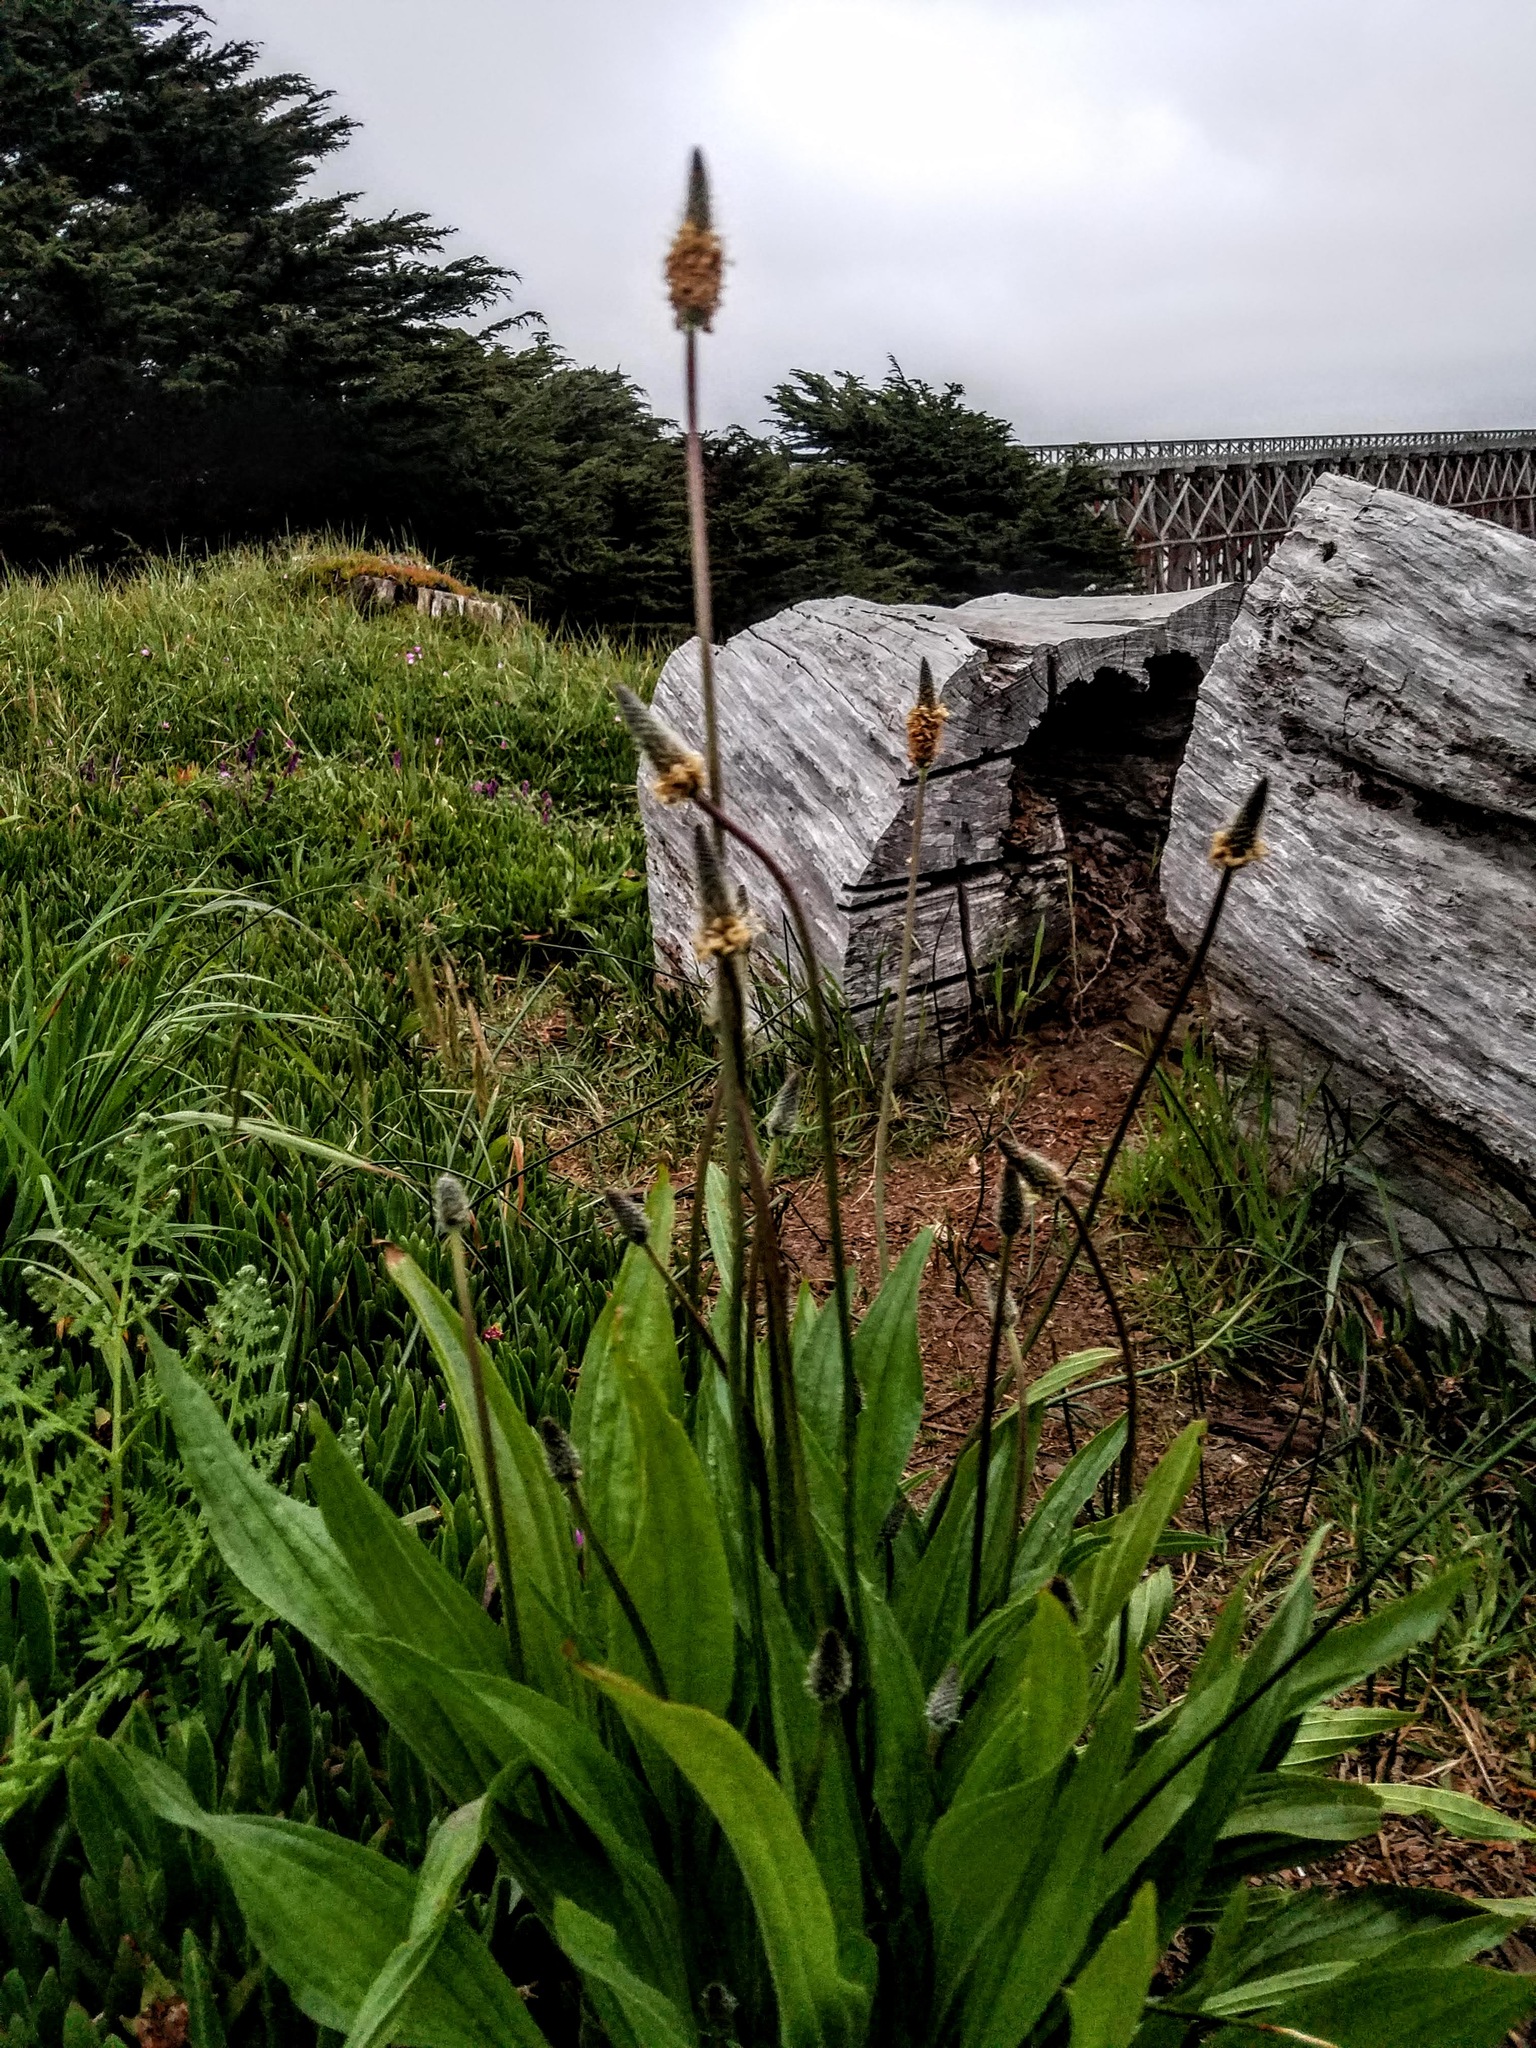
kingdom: Plantae
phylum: Tracheophyta
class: Magnoliopsida
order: Lamiales
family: Plantaginaceae
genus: Plantago
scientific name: Plantago lanceolata
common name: Ribwort plantain
